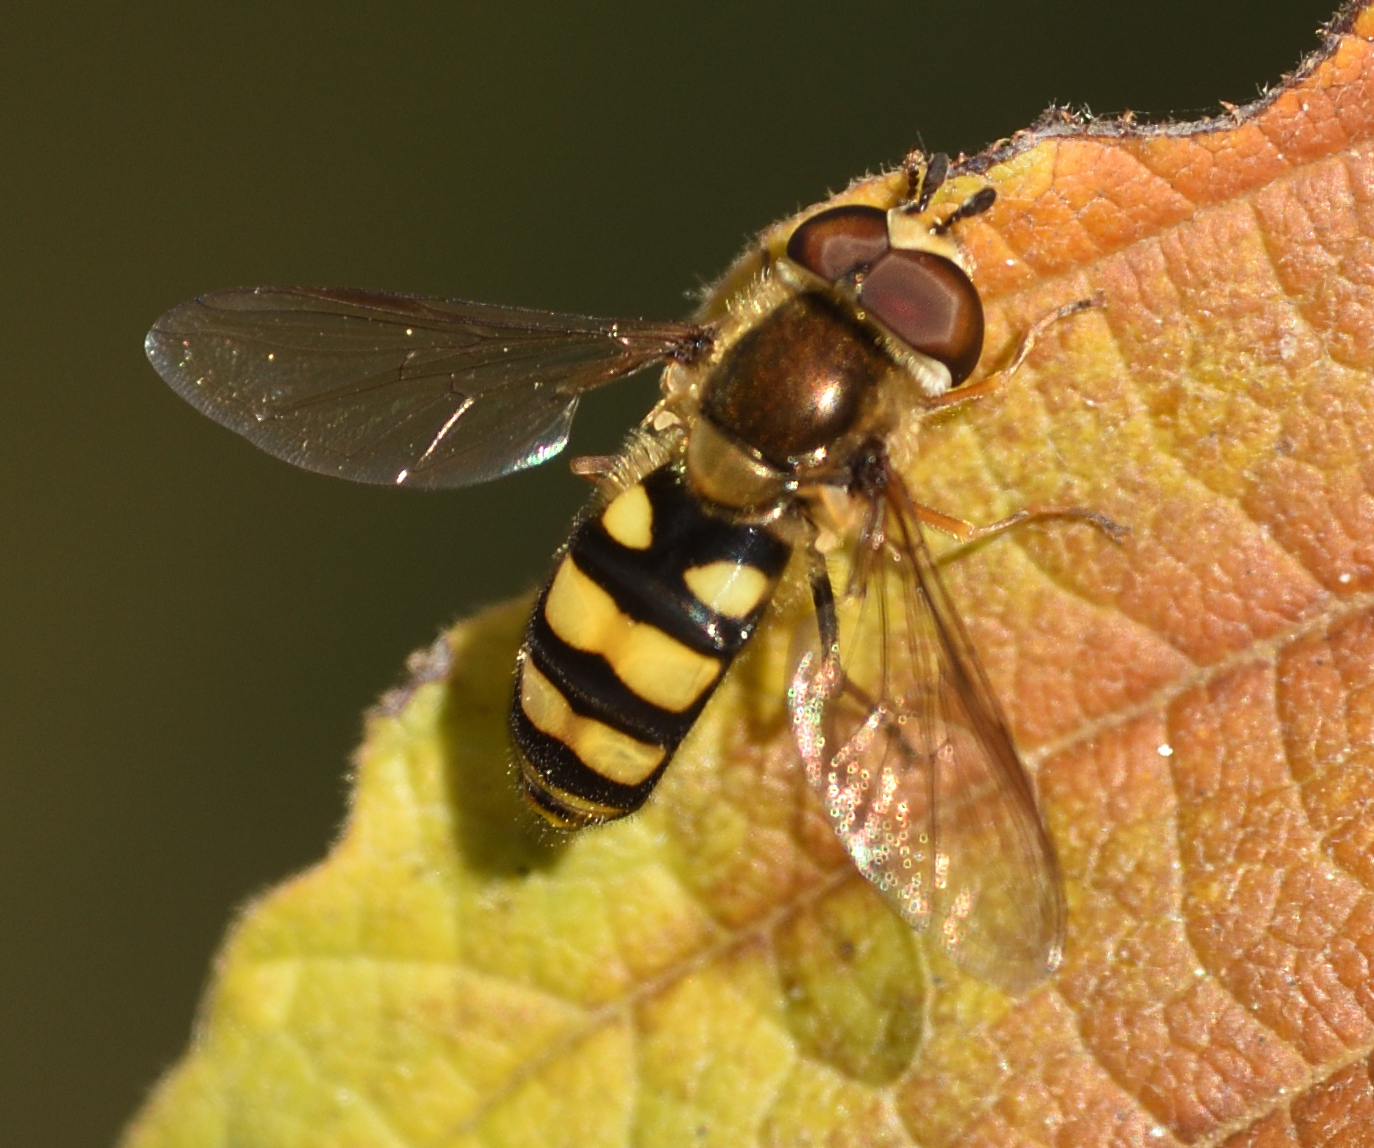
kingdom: Animalia
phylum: Arthropoda
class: Insecta
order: Diptera
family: Syrphidae
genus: Eupeodes
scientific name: Eupeodes
